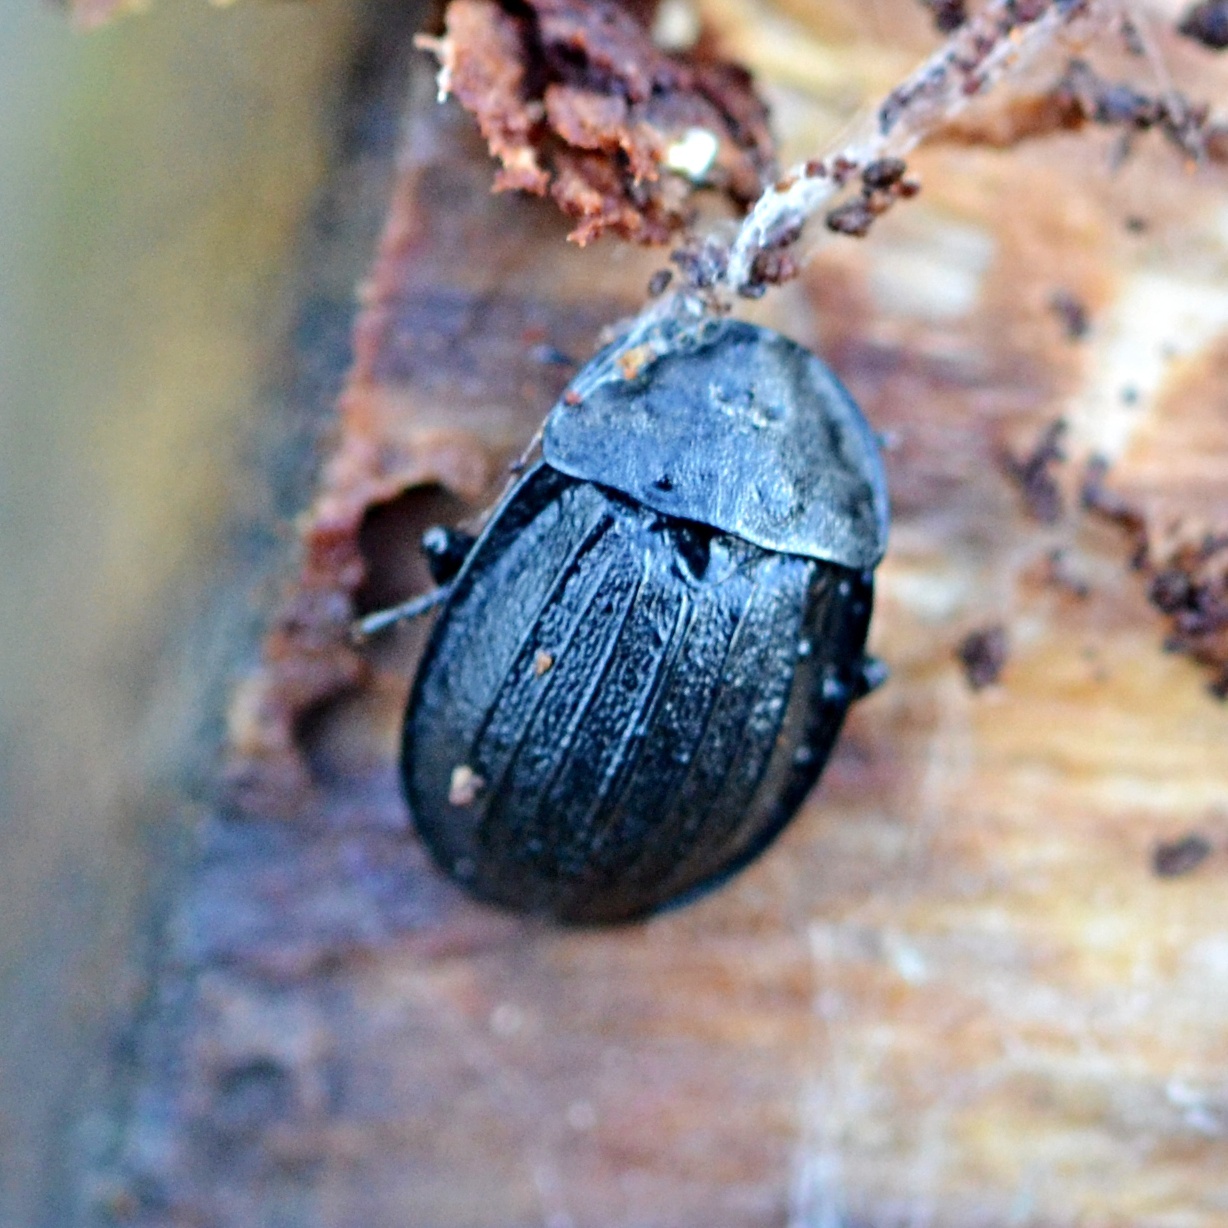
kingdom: Animalia
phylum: Arthropoda
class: Insecta
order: Coleoptera
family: Staphylinidae
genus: Silpha
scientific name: Silpha atrata
